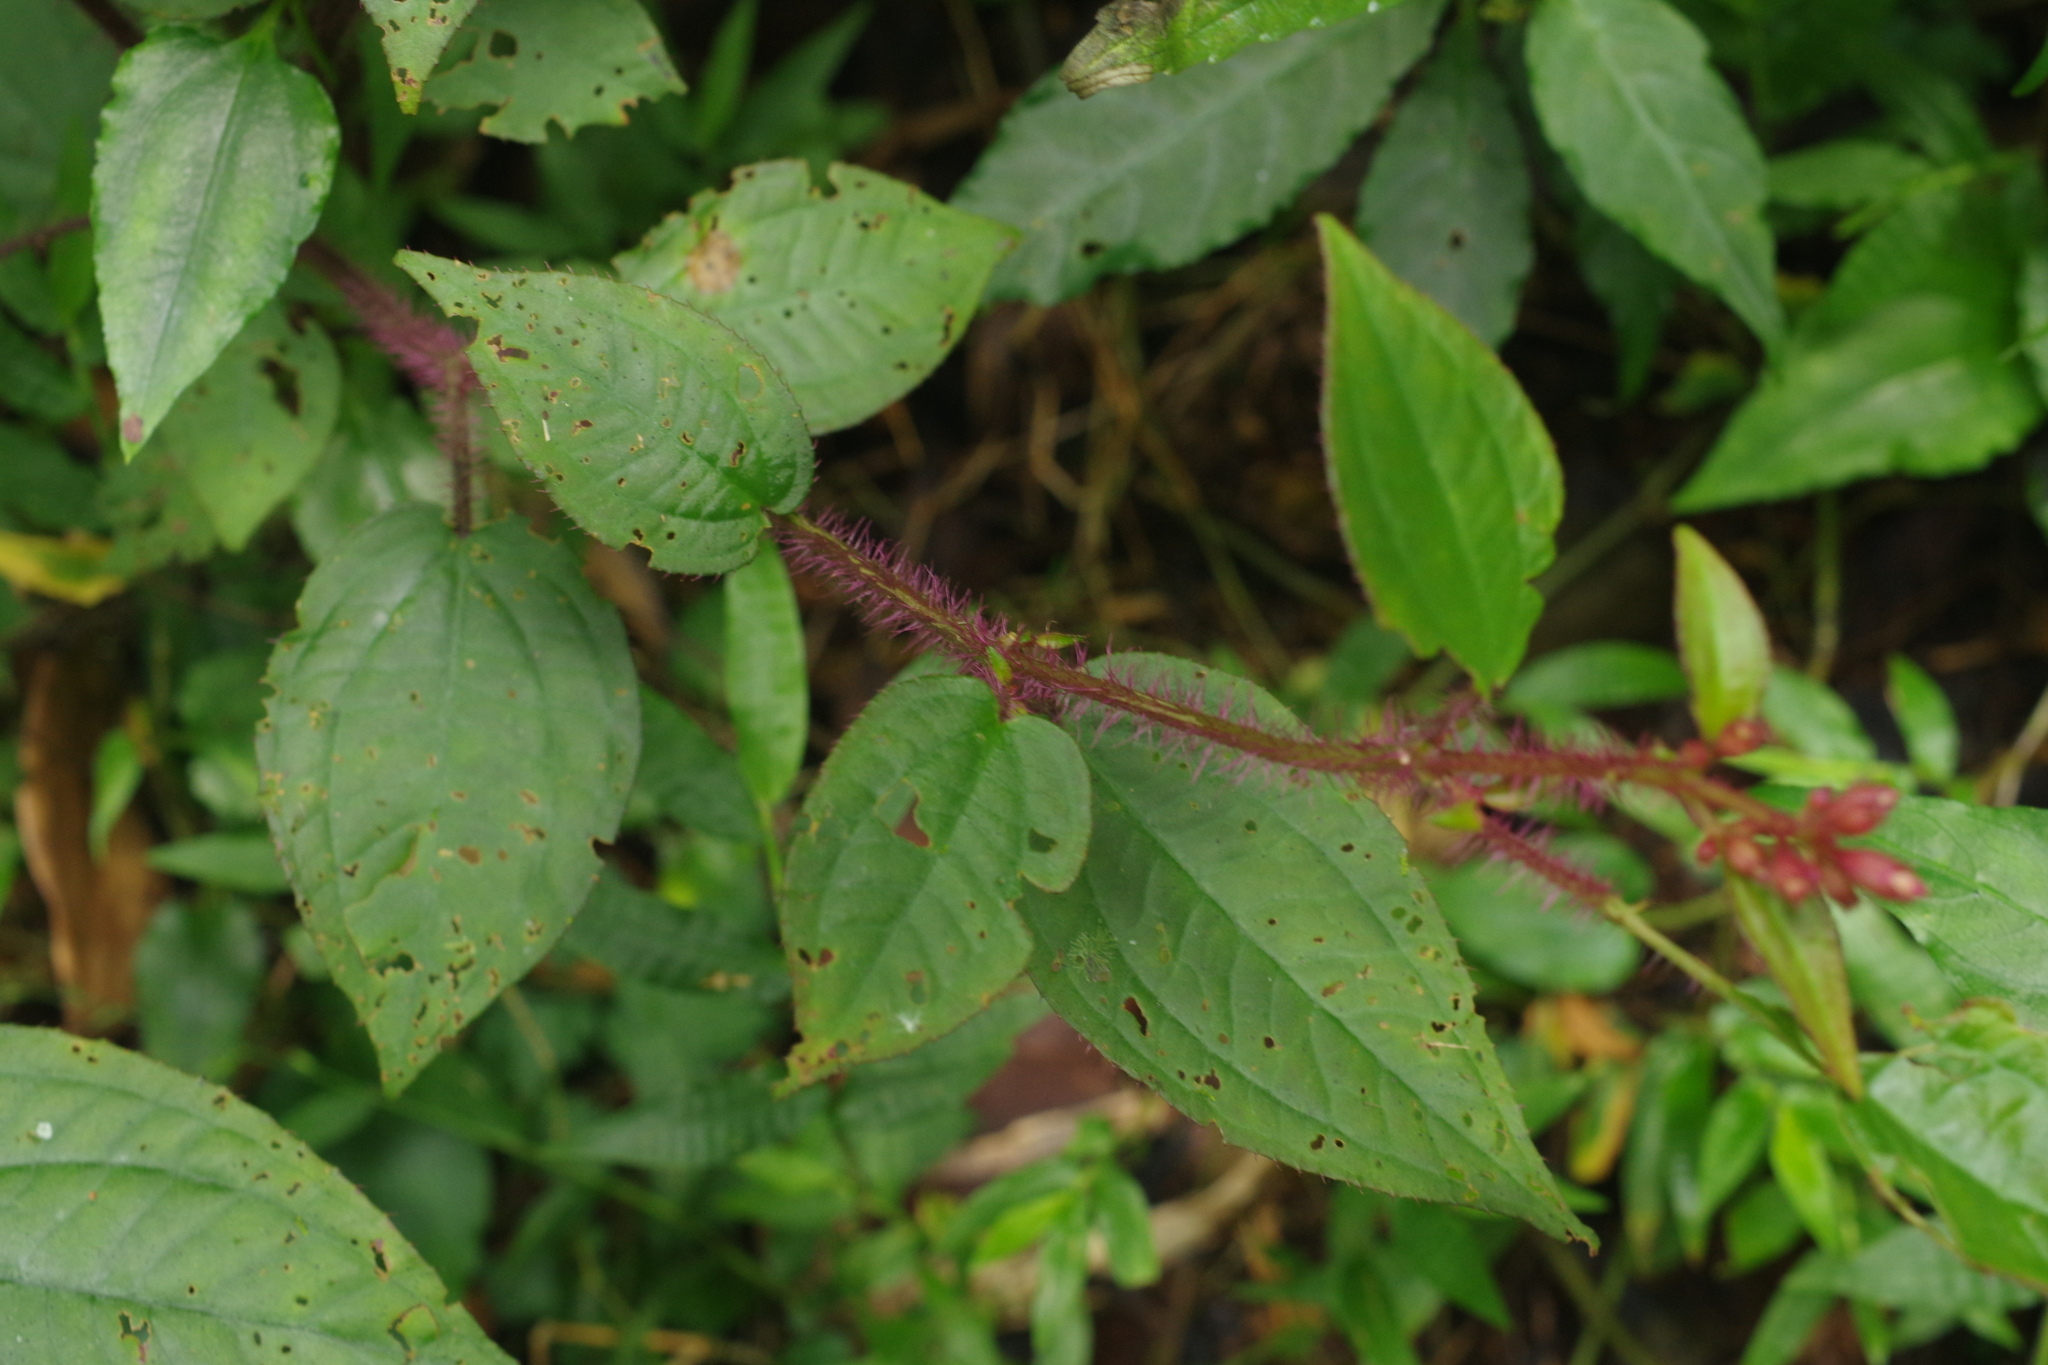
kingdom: Plantae
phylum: Tracheophyta
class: Magnoliopsida
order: Myrtales
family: Melastomataceae
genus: Bredia
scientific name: Bredia hirsuta
